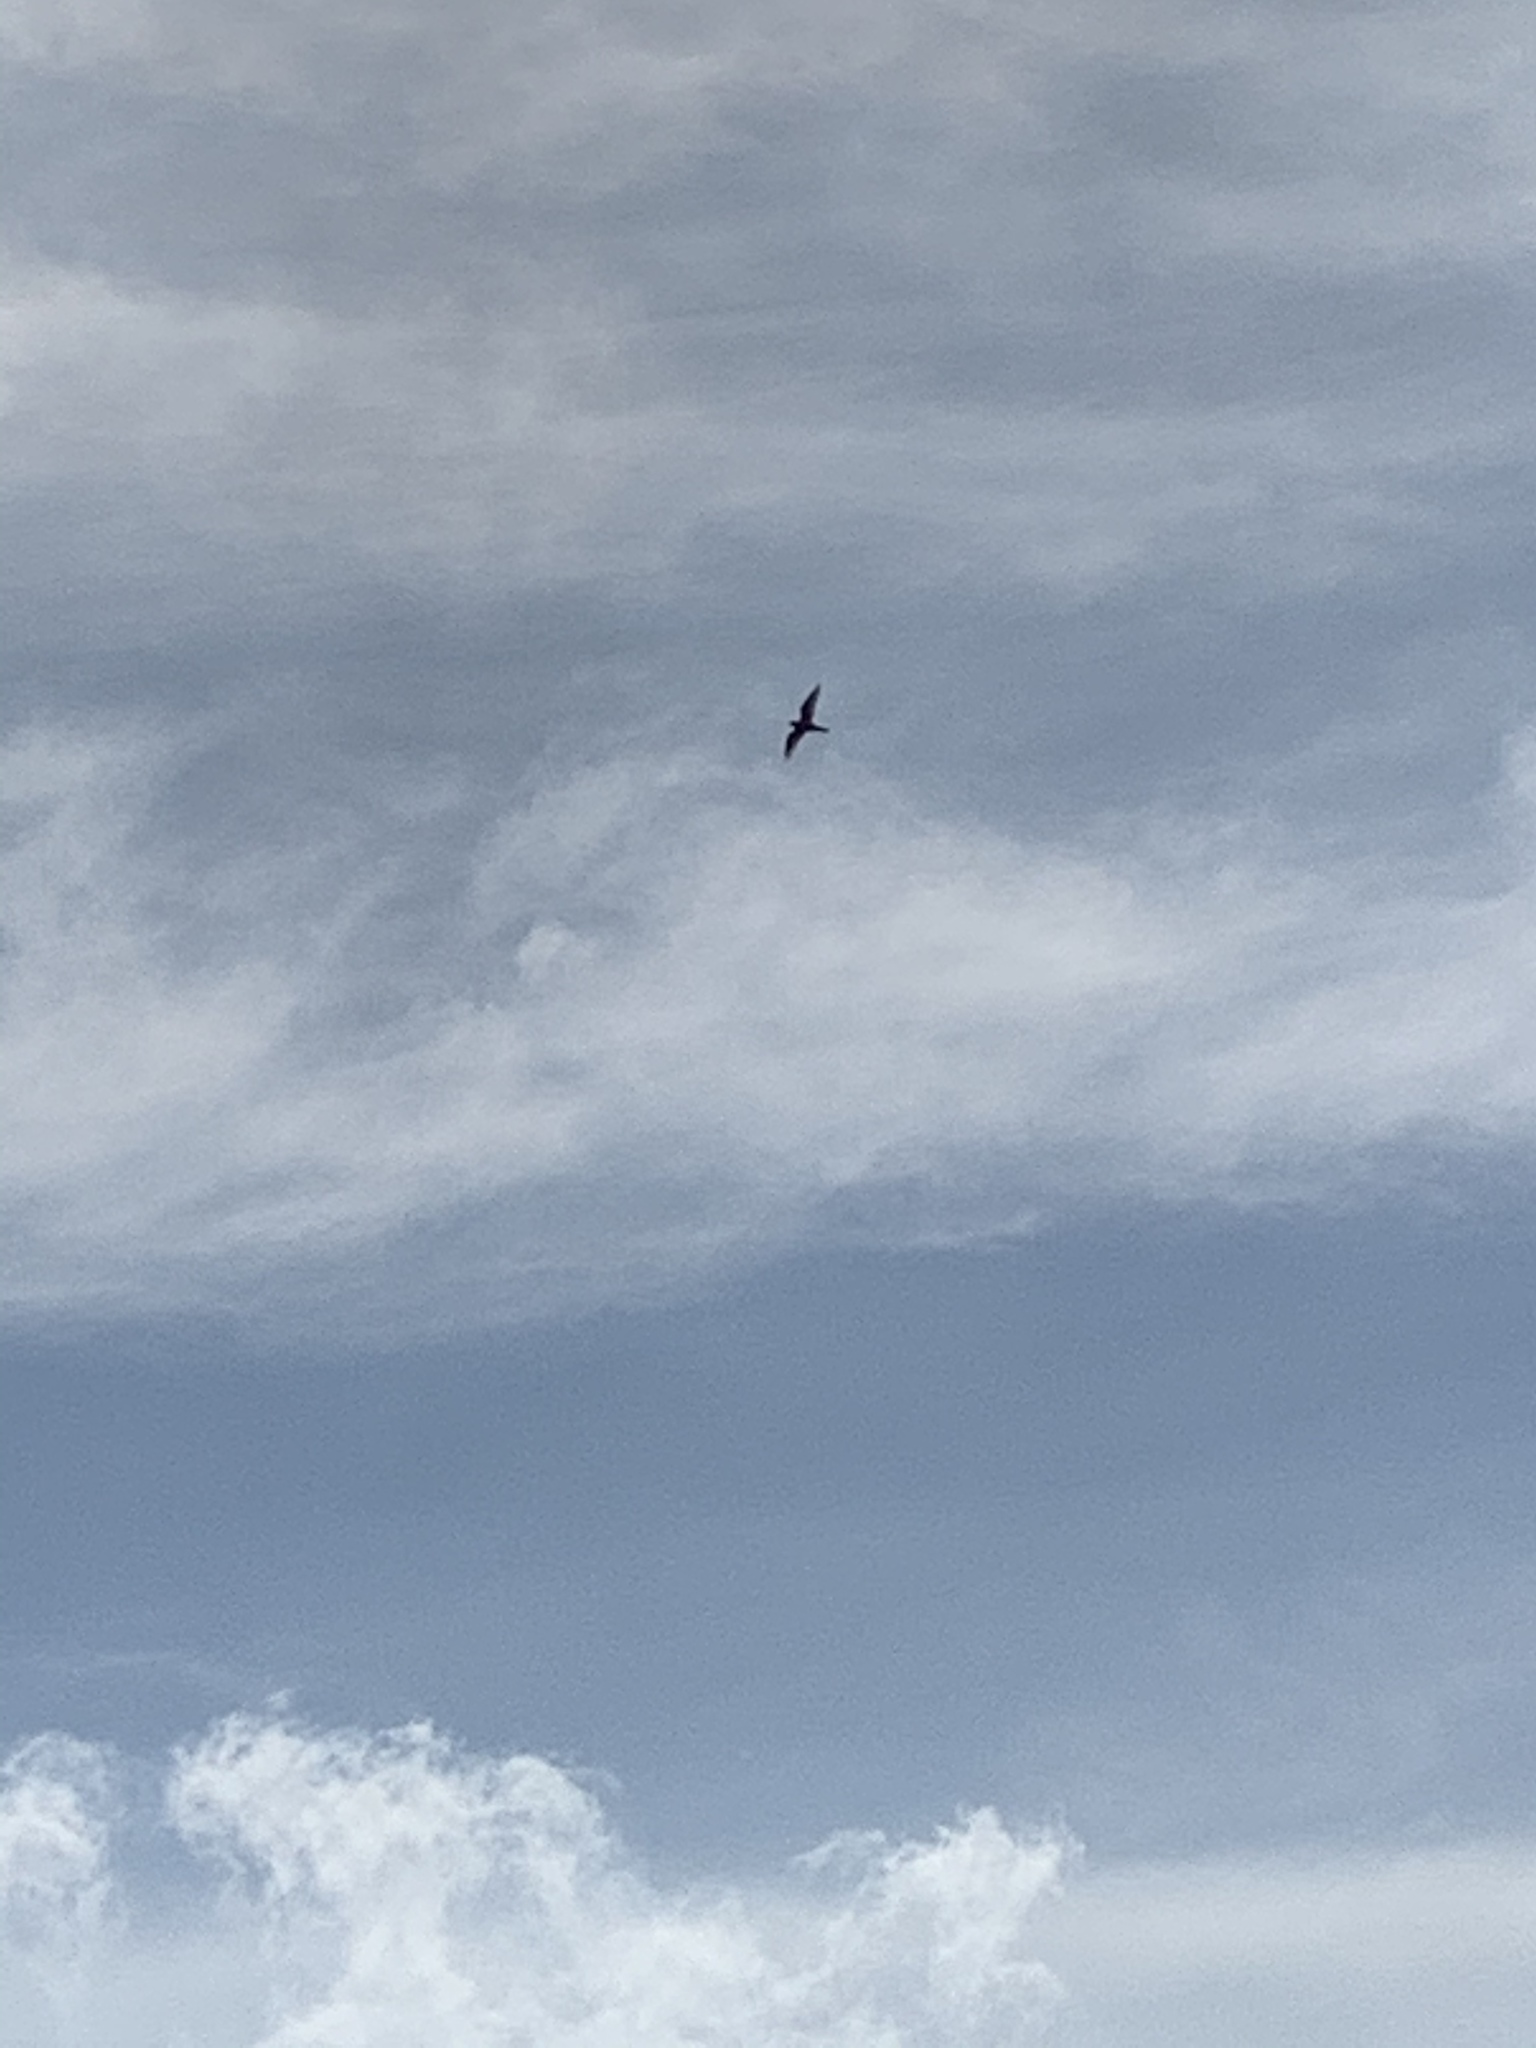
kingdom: Animalia
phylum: Chordata
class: Aves
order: Charadriiformes
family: Charadriidae
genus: Charadrius
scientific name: Charadrius vociferus
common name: Killdeer
